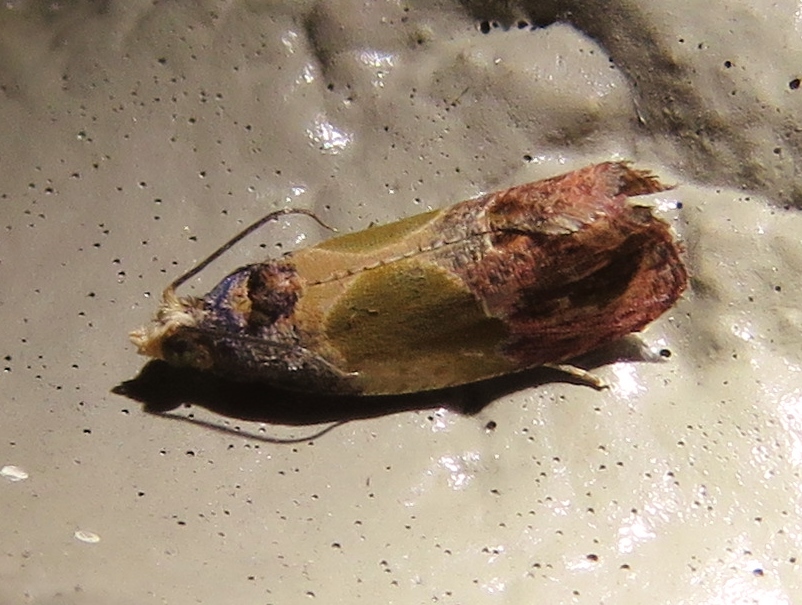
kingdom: Animalia
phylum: Arthropoda
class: Insecta
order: Lepidoptera
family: Tortricidae
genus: Eumarozia
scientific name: Eumarozia malachitana
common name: Sculptured moth
